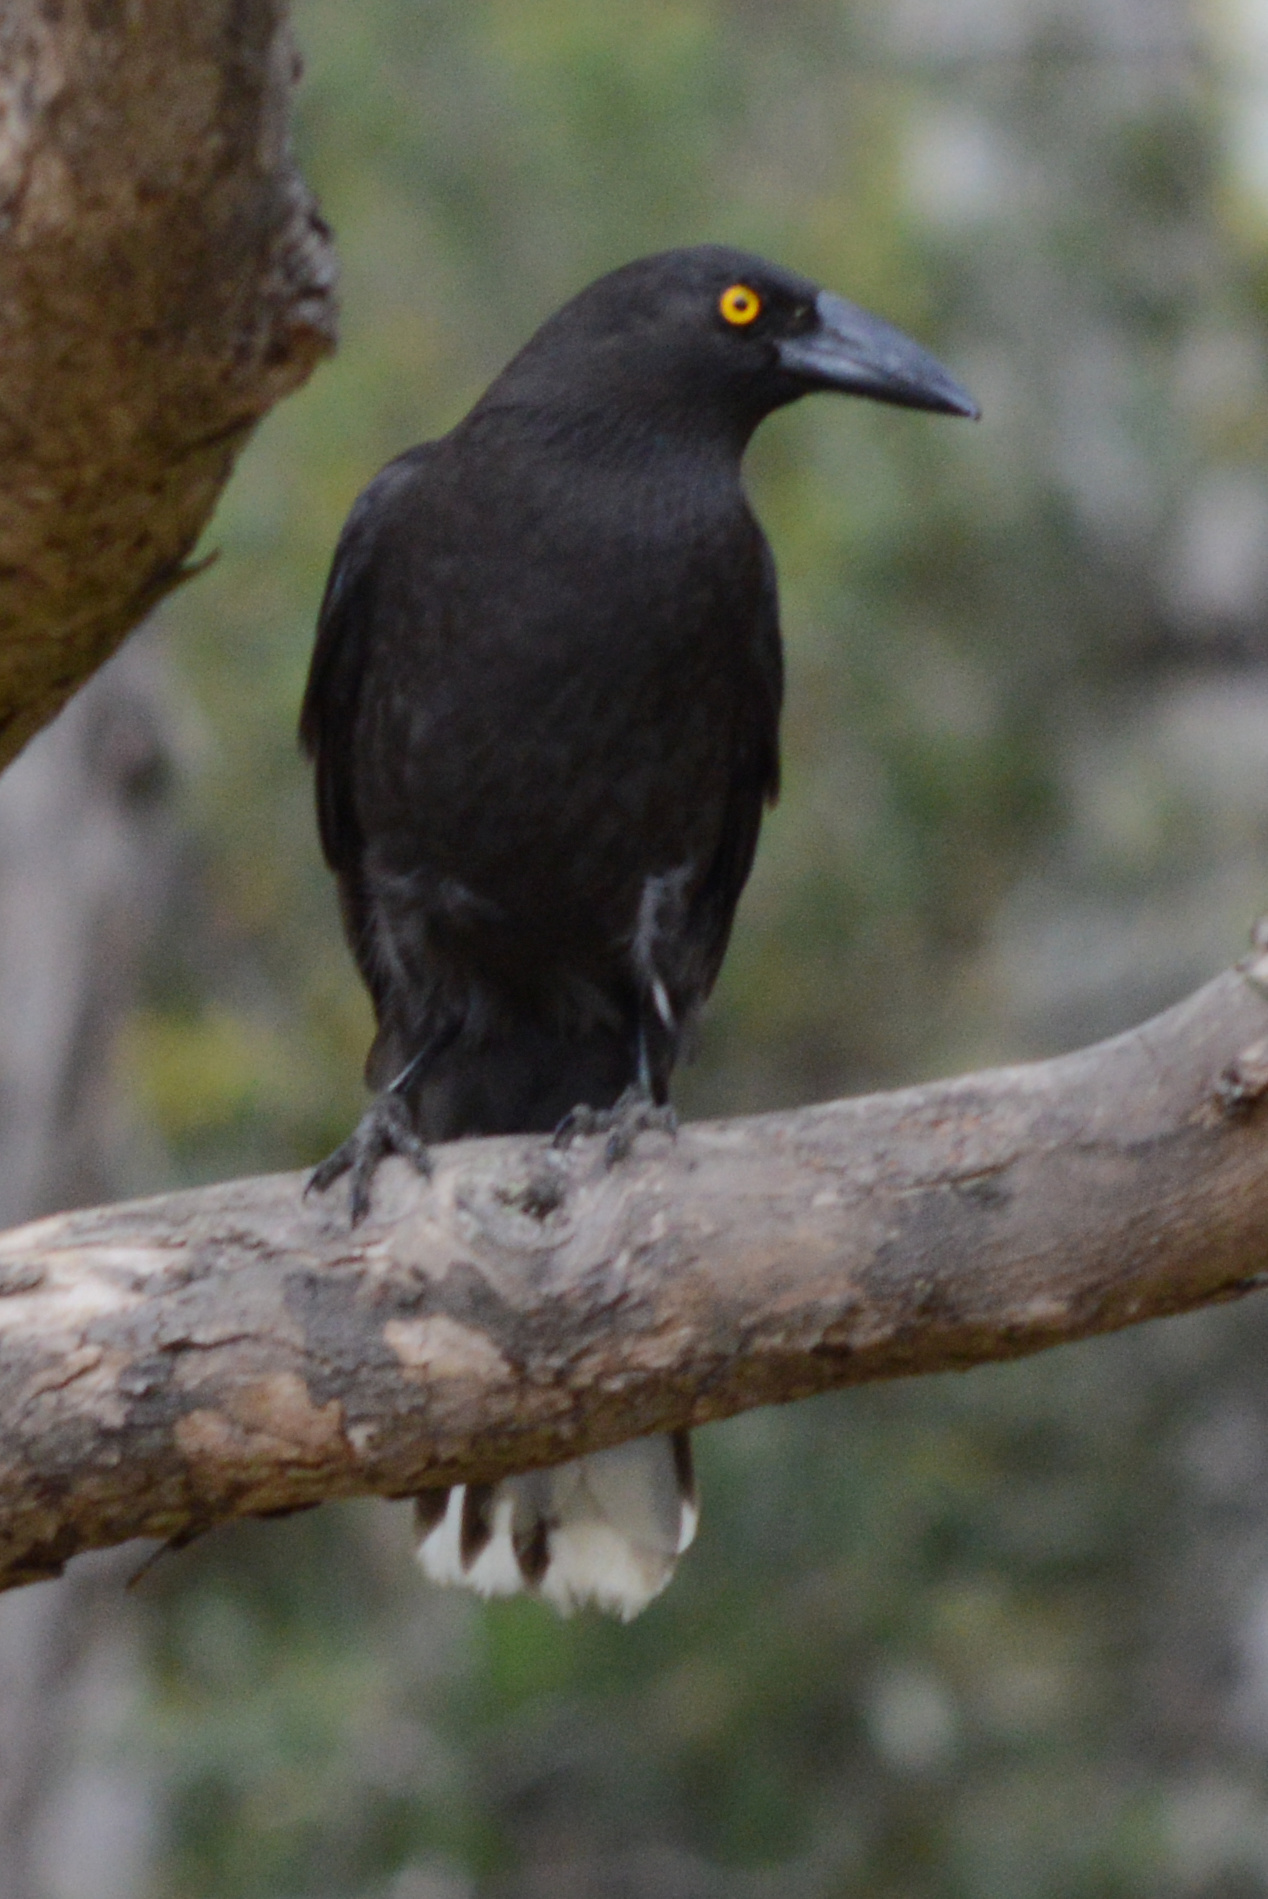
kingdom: Animalia
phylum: Chordata
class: Aves
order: Passeriformes
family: Cracticidae
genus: Strepera
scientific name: Strepera fuliginosa
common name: Black currawong
